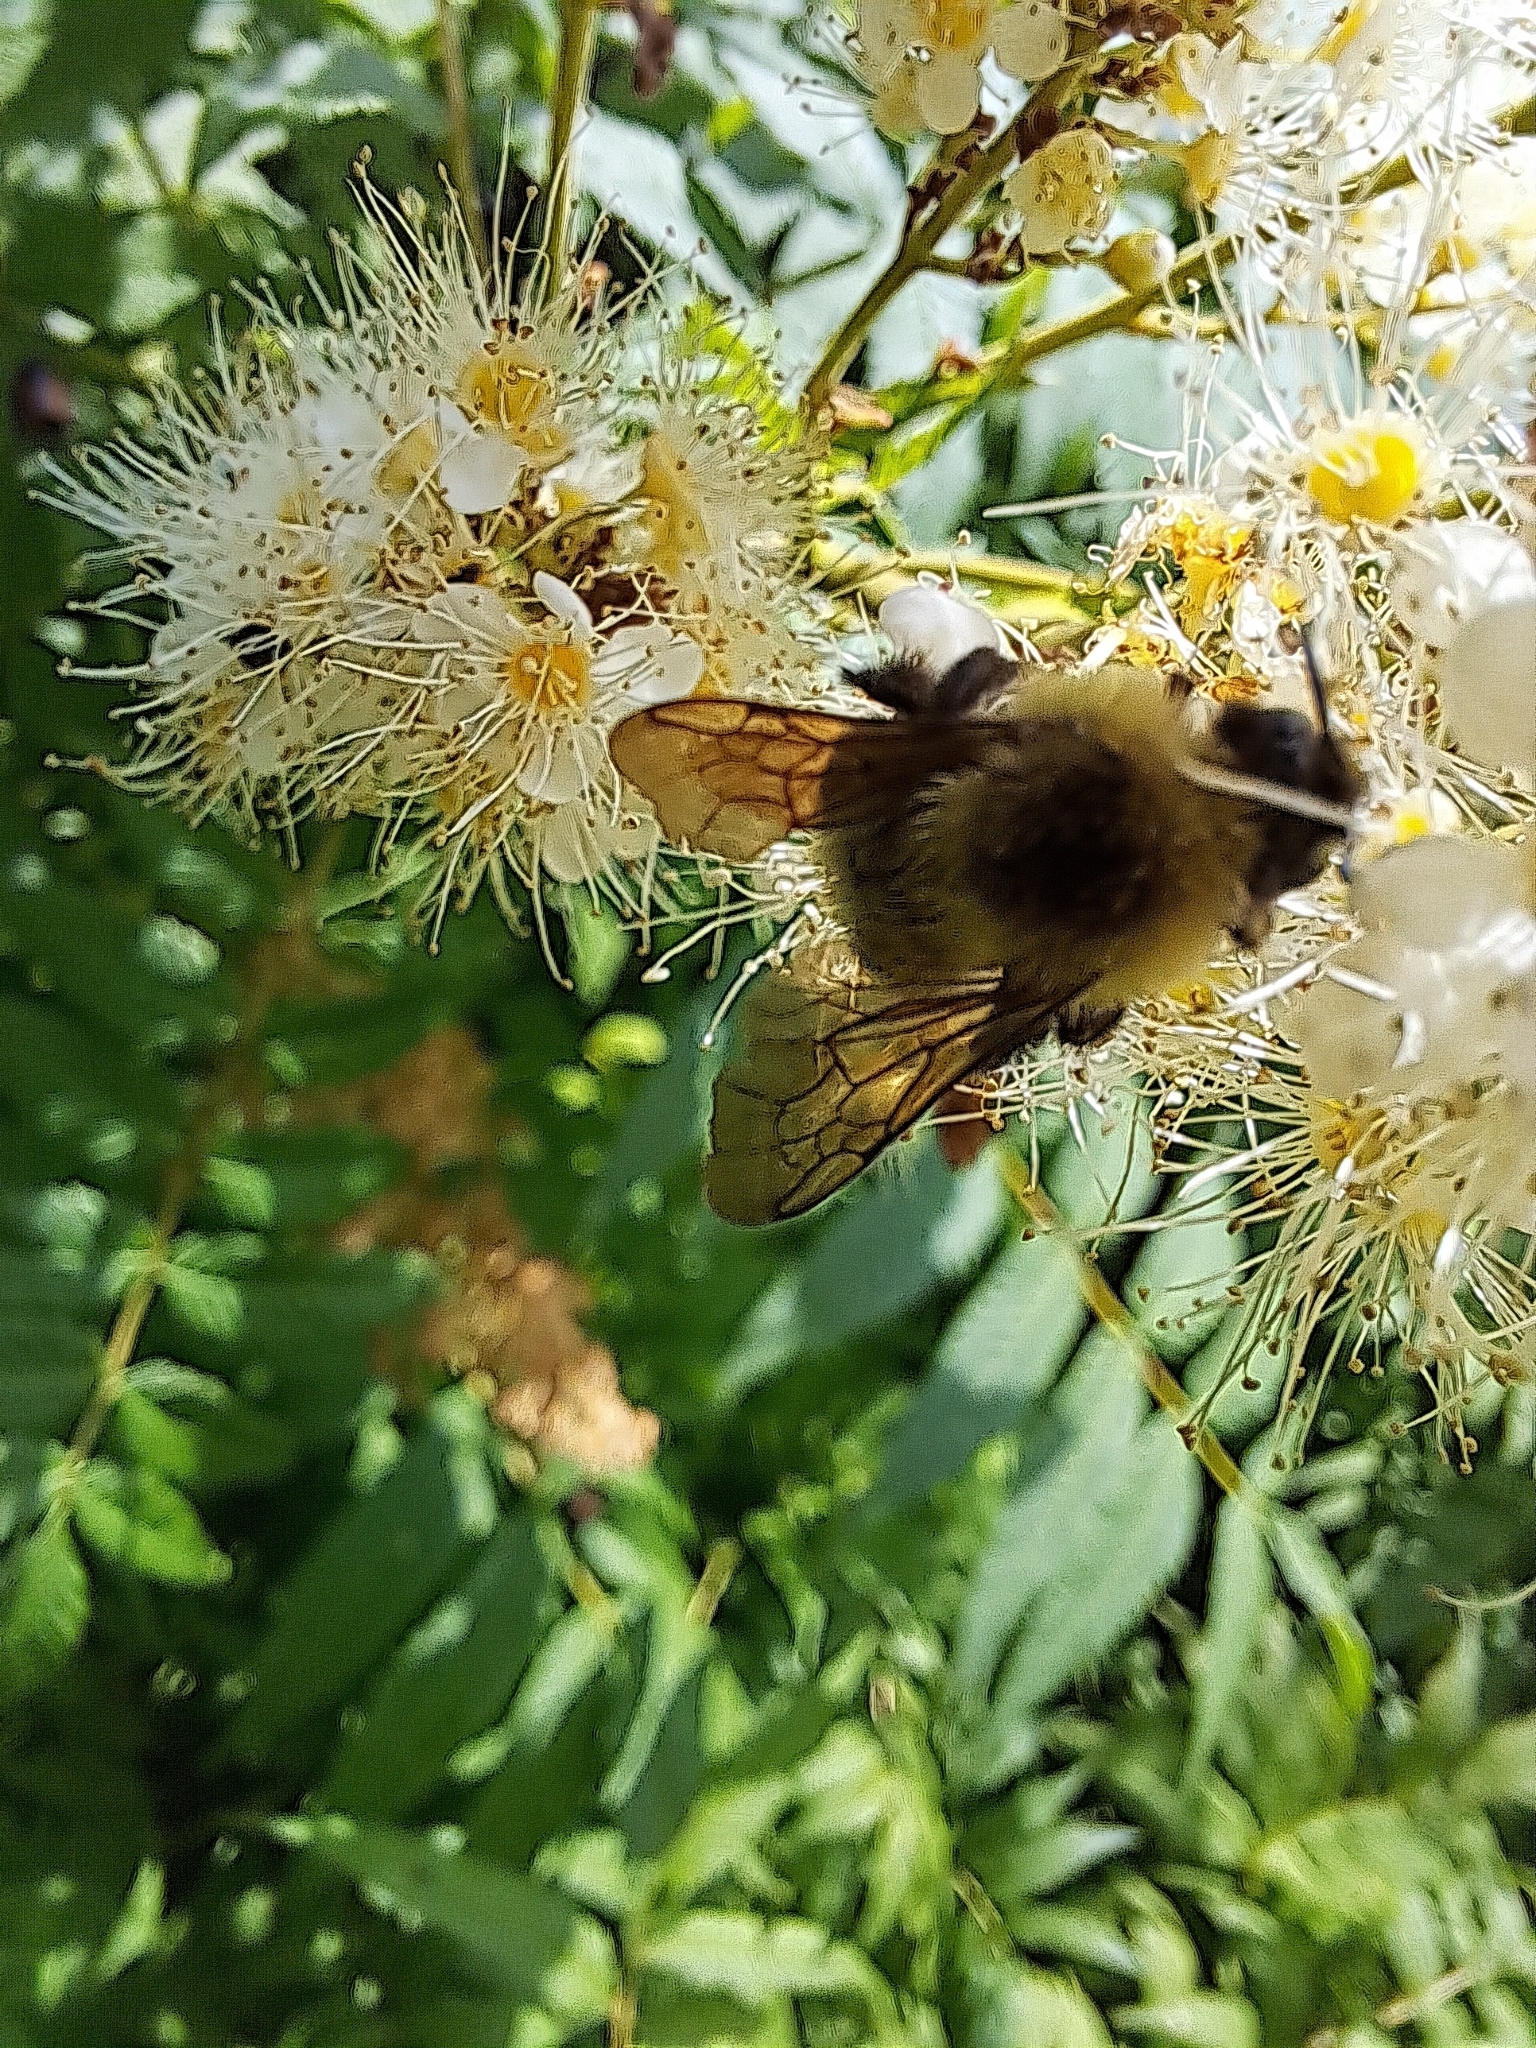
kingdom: Animalia
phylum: Arthropoda
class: Insecta
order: Hymenoptera
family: Apidae
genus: Bombus
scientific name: Bombus bimaculatus
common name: Two-spotted bumble bee
